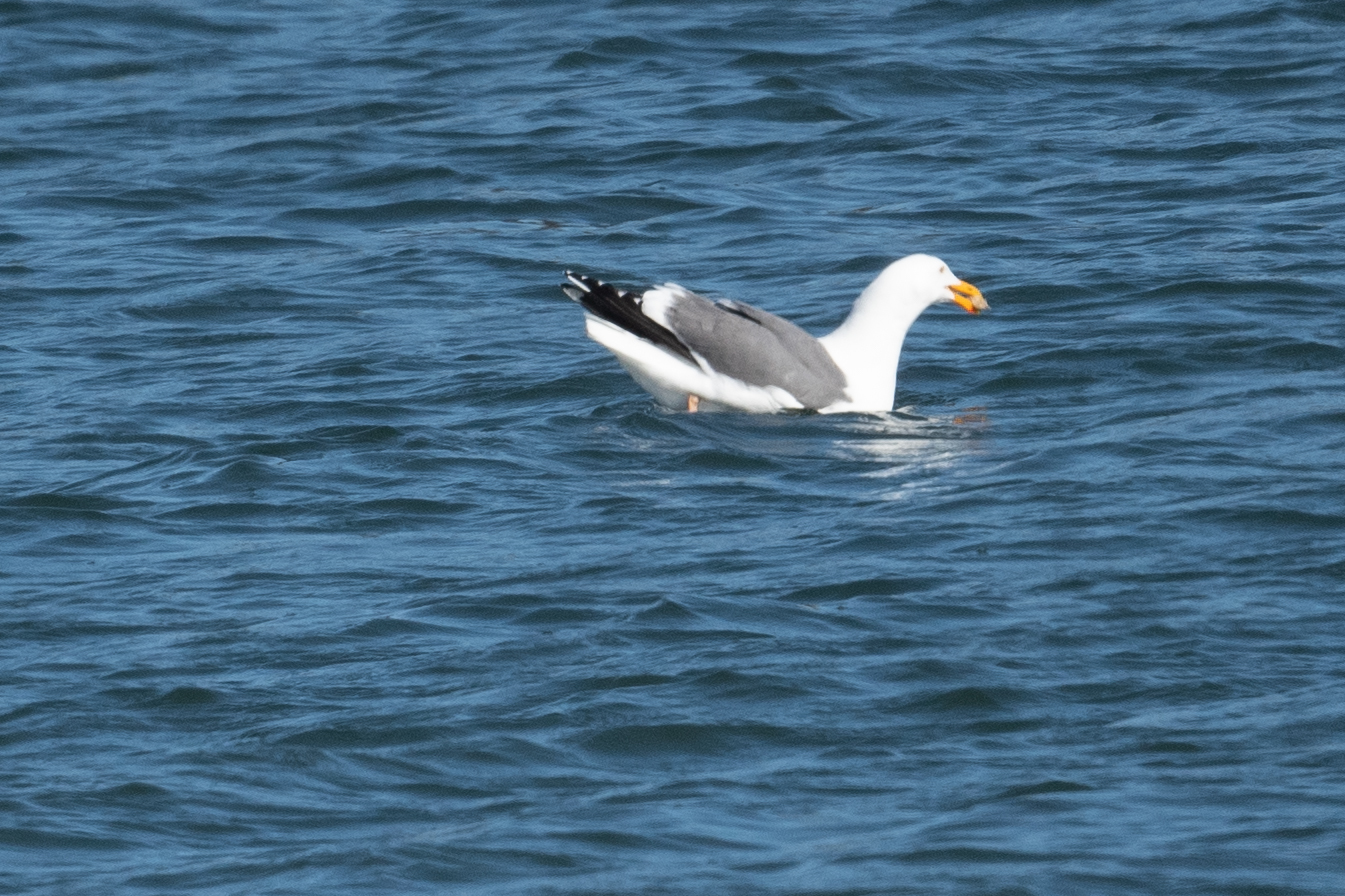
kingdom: Animalia
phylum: Chordata
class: Aves
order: Charadriiformes
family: Laridae
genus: Larus
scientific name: Larus occidentalis
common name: Western gull
